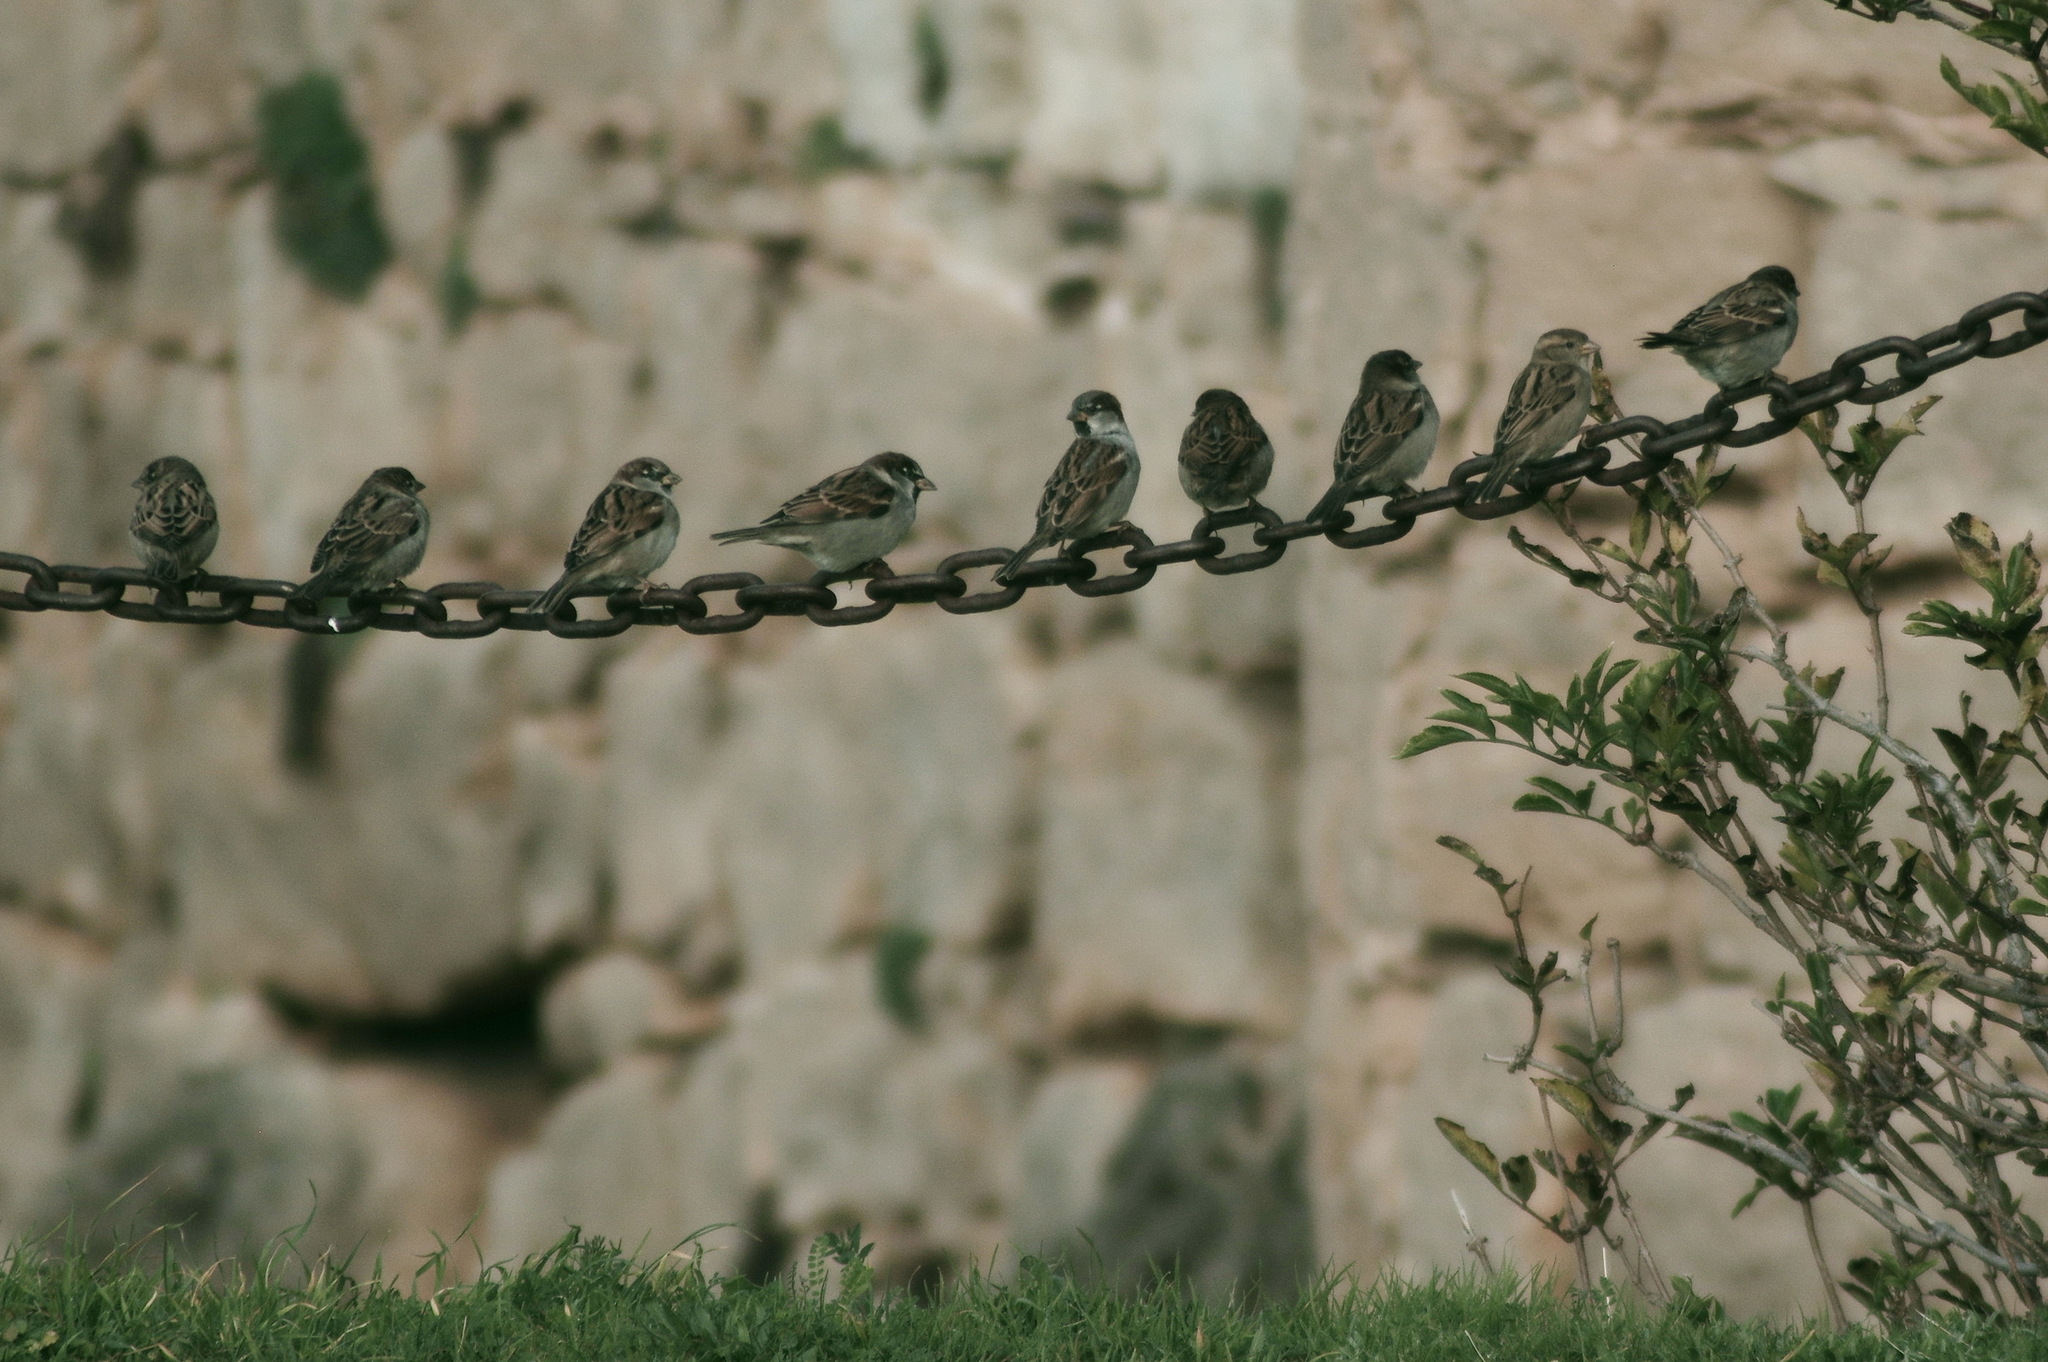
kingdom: Animalia
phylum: Chordata
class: Aves
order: Passeriformes
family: Passeridae
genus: Passer
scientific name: Passer domesticus
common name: House sparrow
